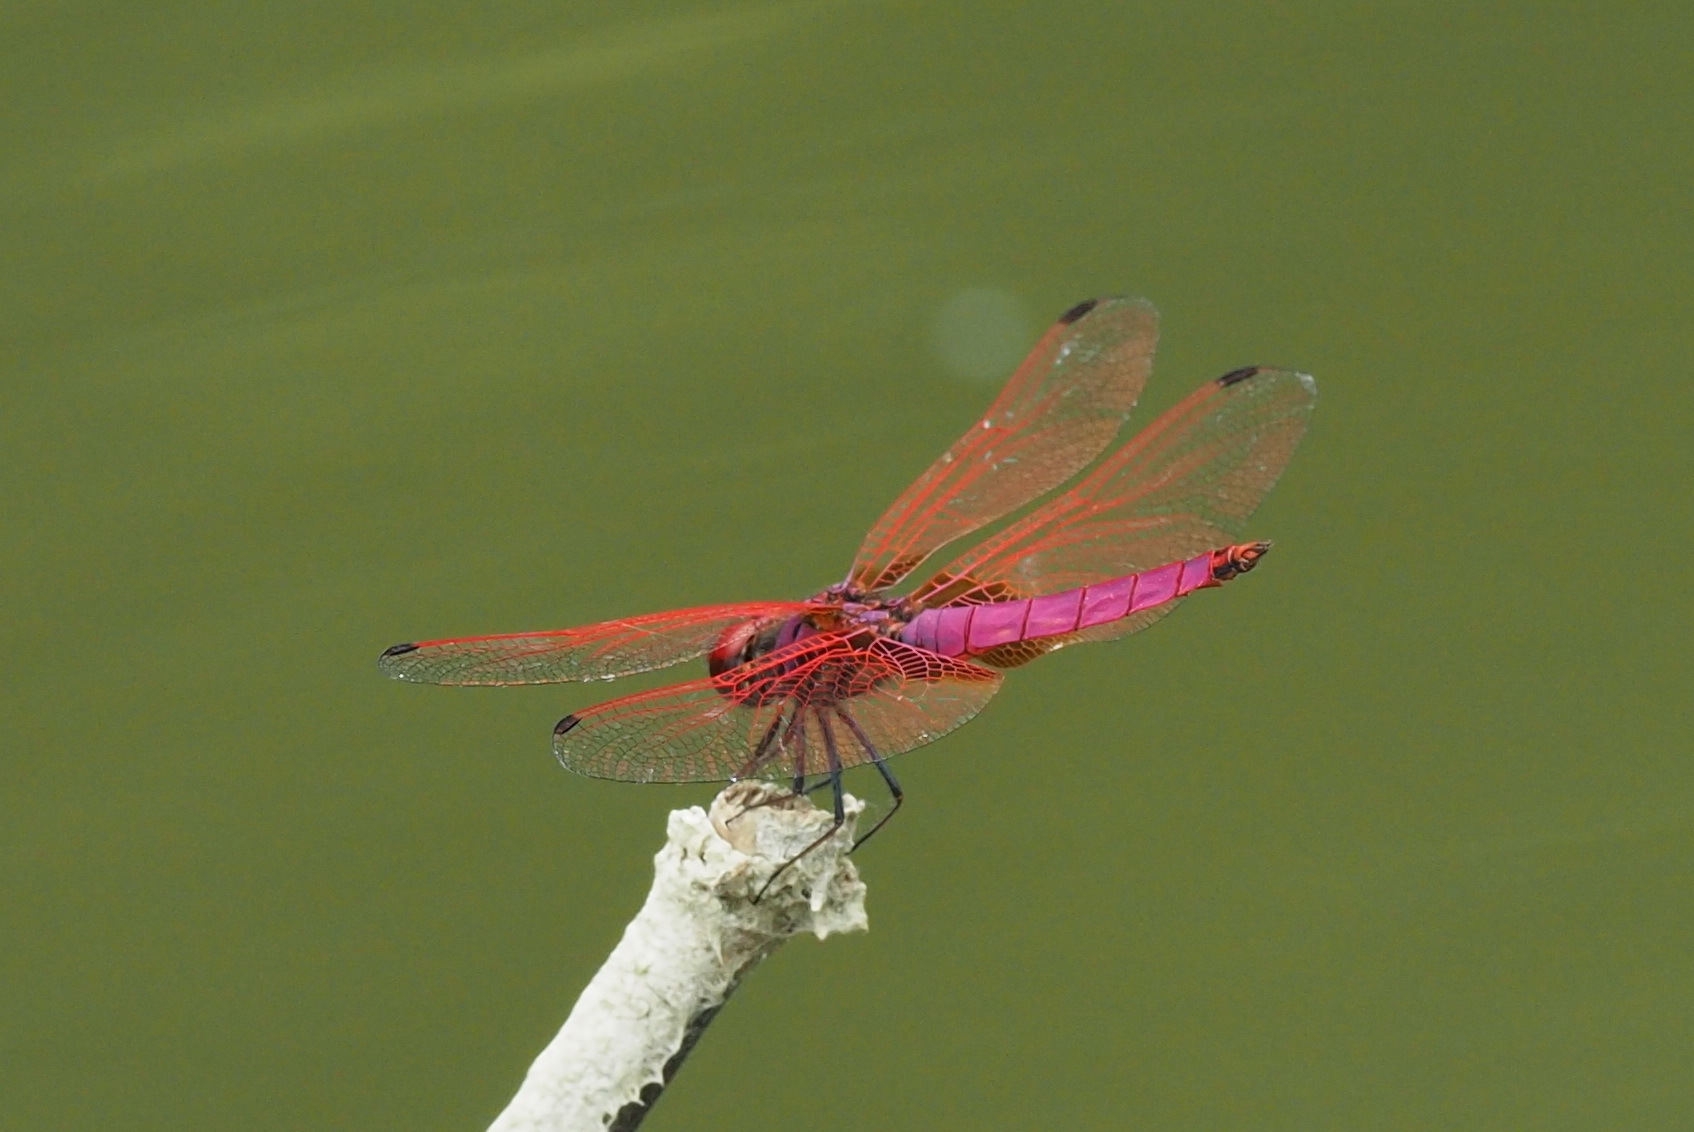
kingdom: Animalia
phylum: Arthropoda
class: Insecta
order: Odonata
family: Libellulidae
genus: Trithemis
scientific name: Trithemis aurora
